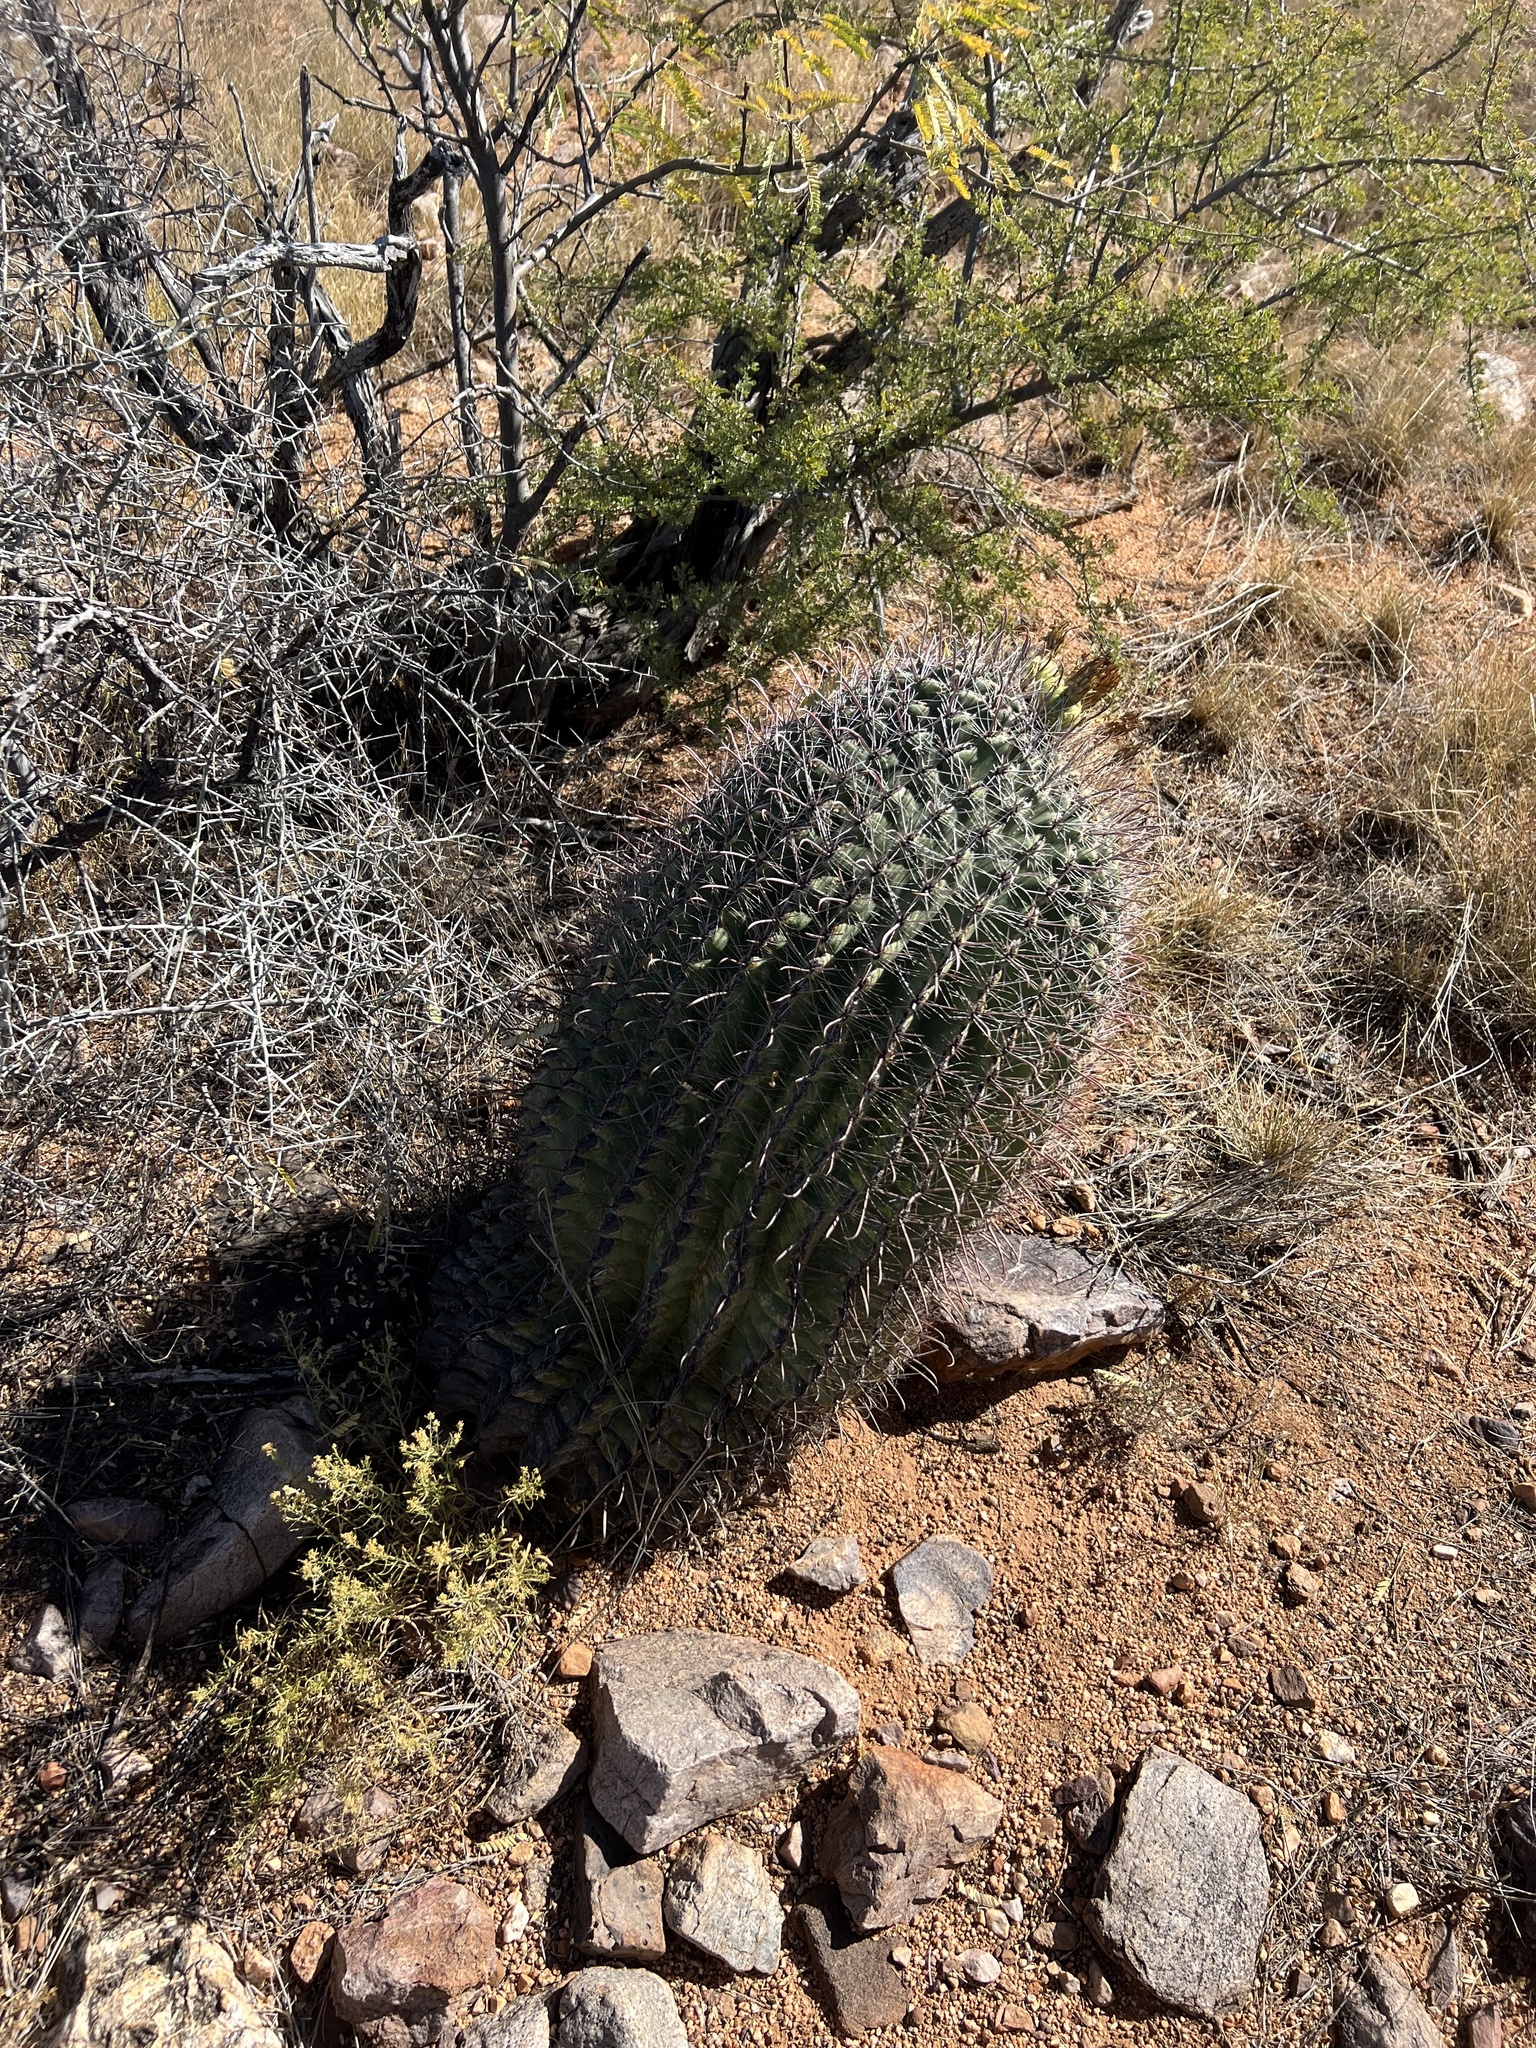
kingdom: Plantae
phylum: Tracheophyta
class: Magnoliopsida
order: Caryophyllales
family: Cactaceae
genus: Ferocactus
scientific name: Ferocactus wislizeni
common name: Candy barrel cactus
